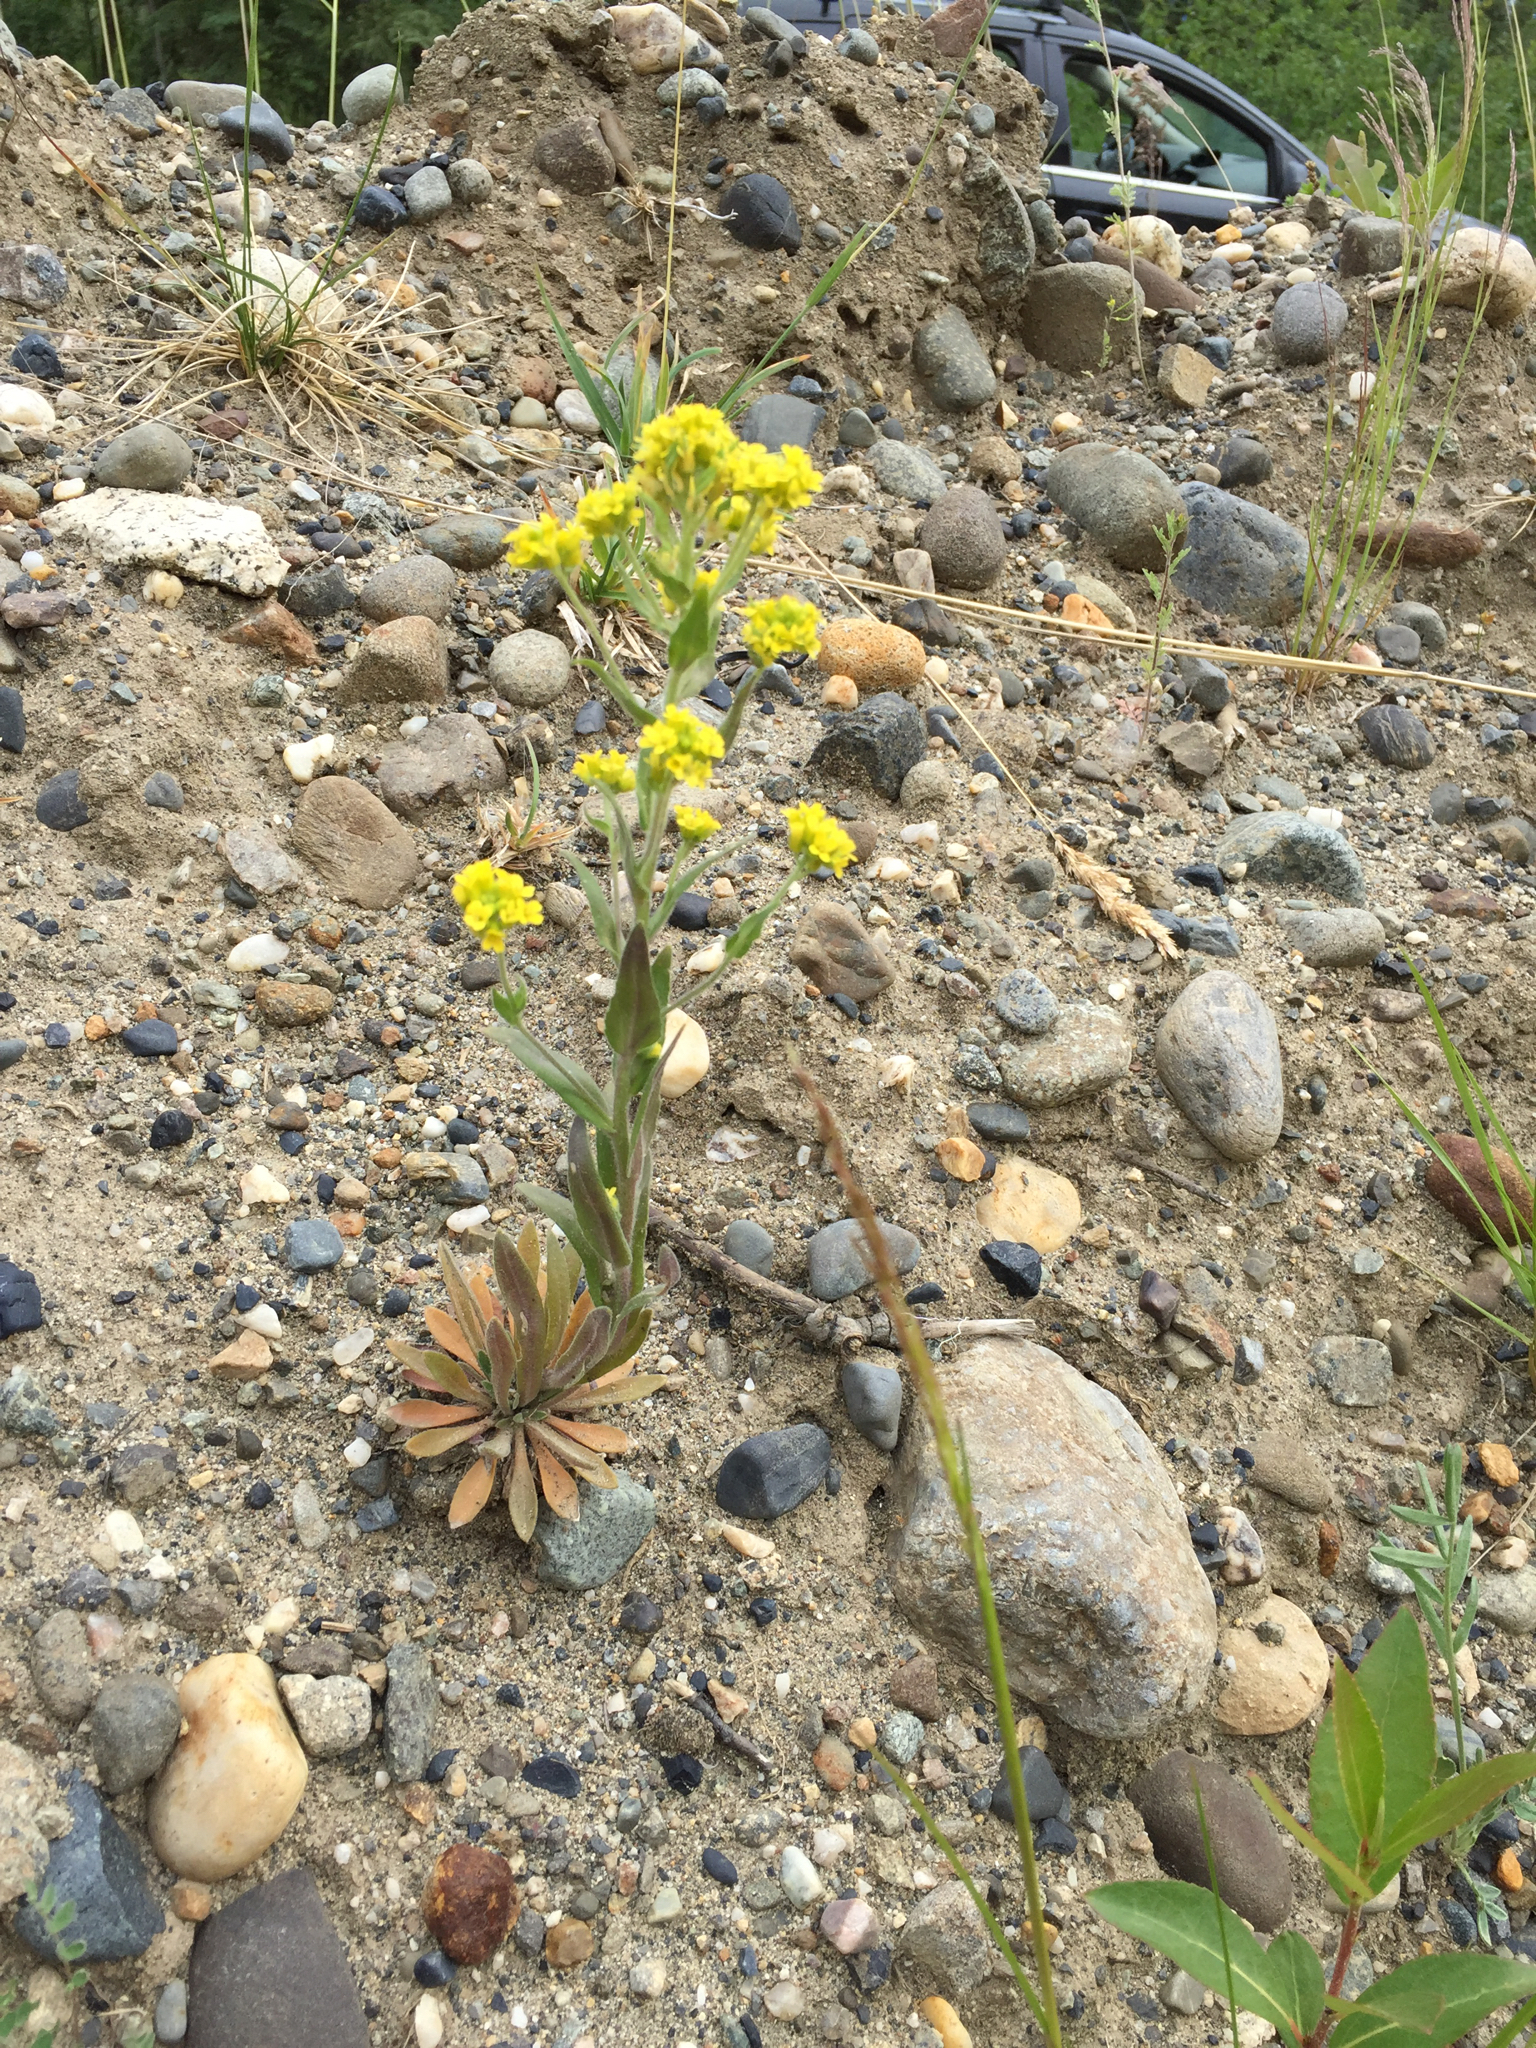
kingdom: Plantae
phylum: Tracheophyta
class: Magnoliopsida
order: Brassicales
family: Brassicaceae
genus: Draba
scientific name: Draba aurea
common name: Golden draba
